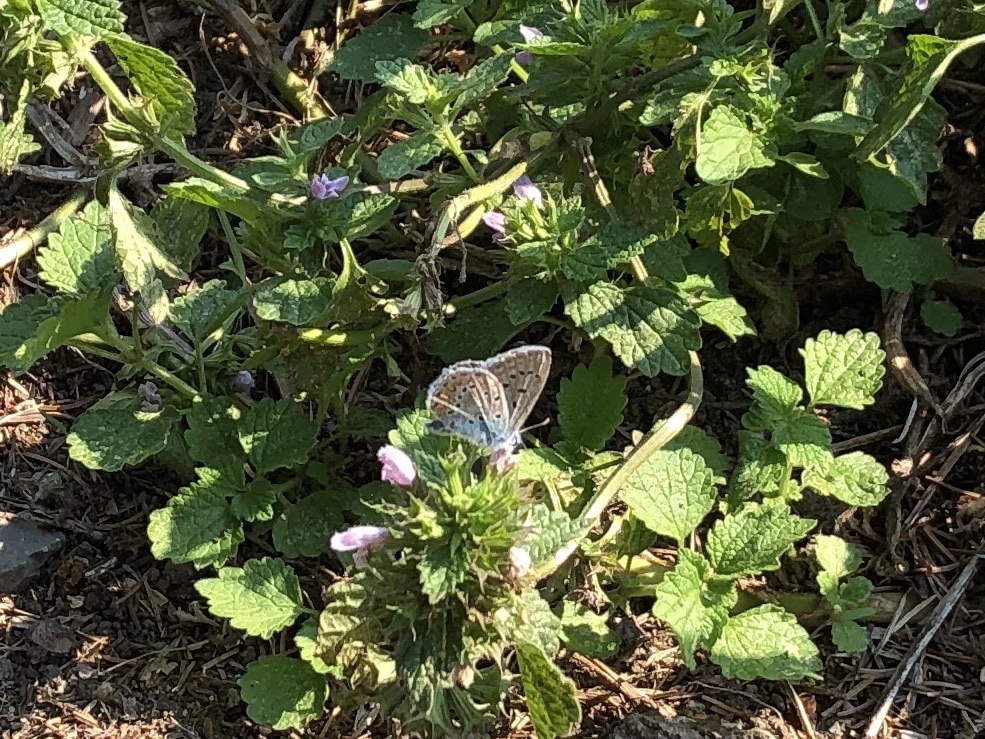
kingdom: Animalia
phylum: Arthropoda
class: Insecta
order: Lepidoptera
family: Lycaenidae
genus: Polyommatus
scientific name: Polyommatus icarus
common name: Common blue
